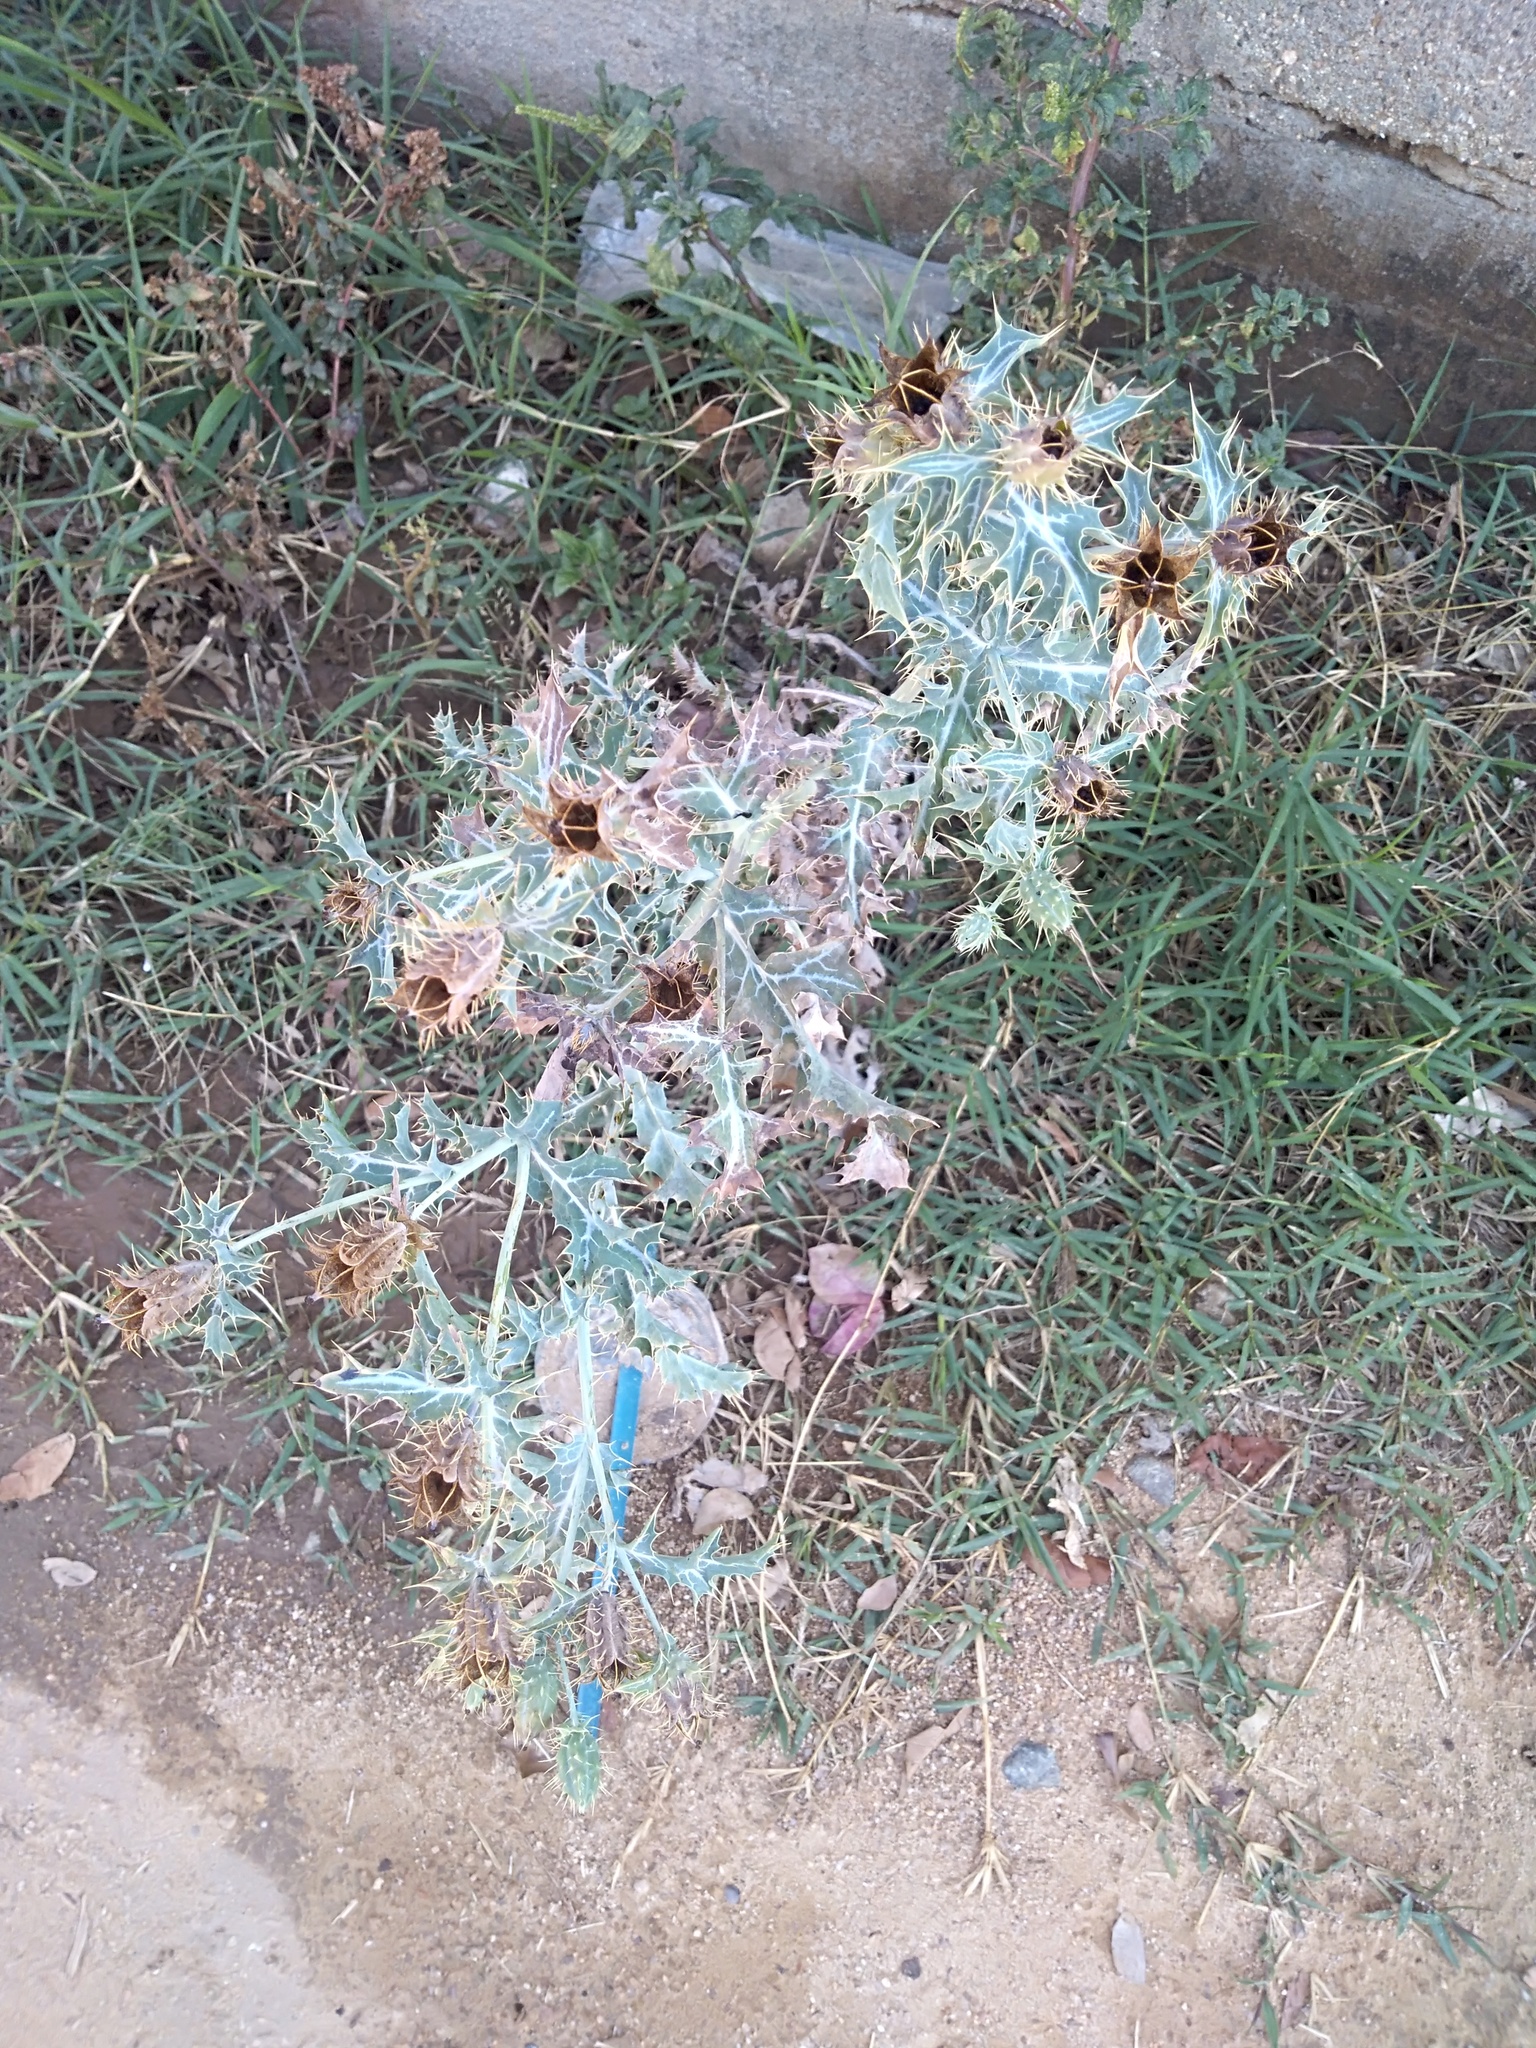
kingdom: Plantae
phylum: Tracheophyta
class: Magnoliopsida
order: Ranunculales
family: Papaveraceae
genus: Argemone
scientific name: Argemone ochroleuca
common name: White-flower mexican-poppy
